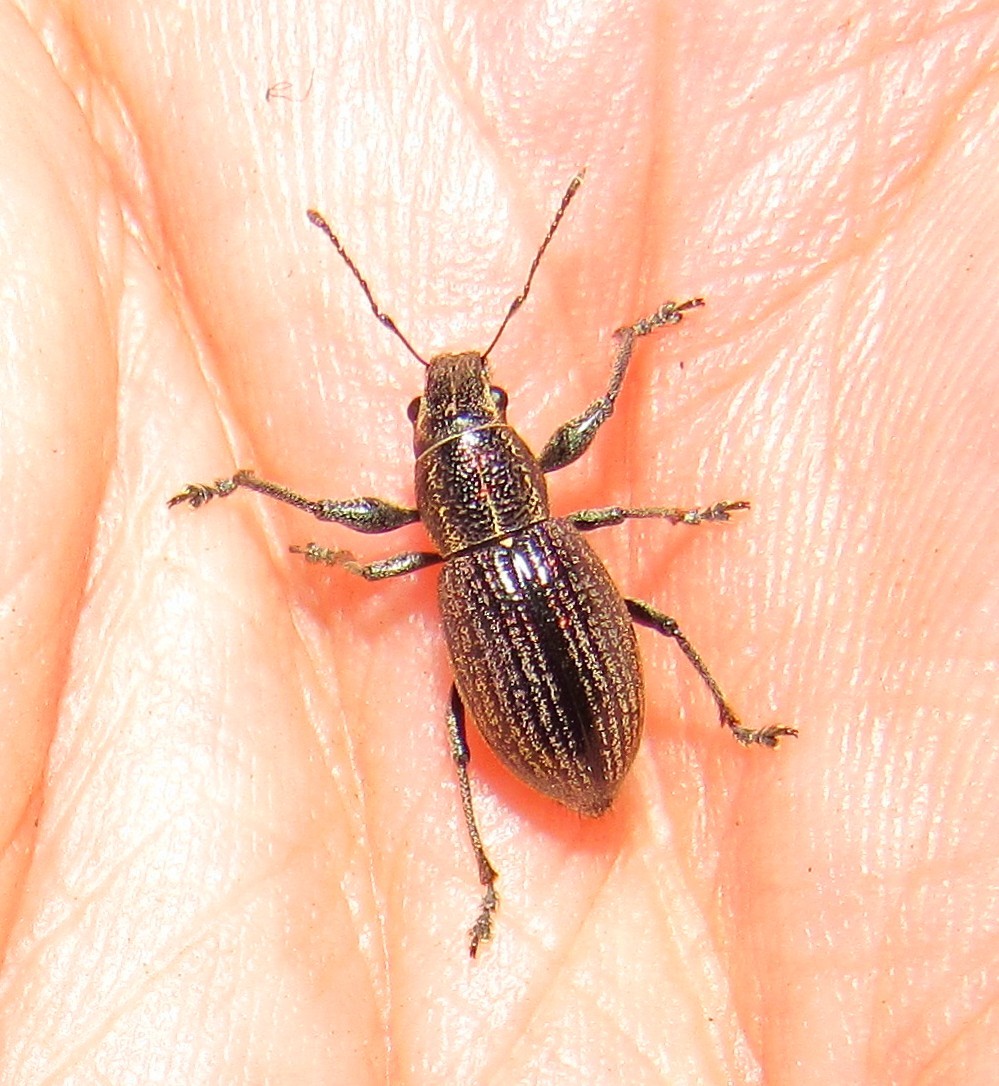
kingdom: Animalia
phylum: Arthropoda
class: Insecta
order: Coleoptera
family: Curculionidae
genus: Naupactus
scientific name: Naupactus tremolerasi
